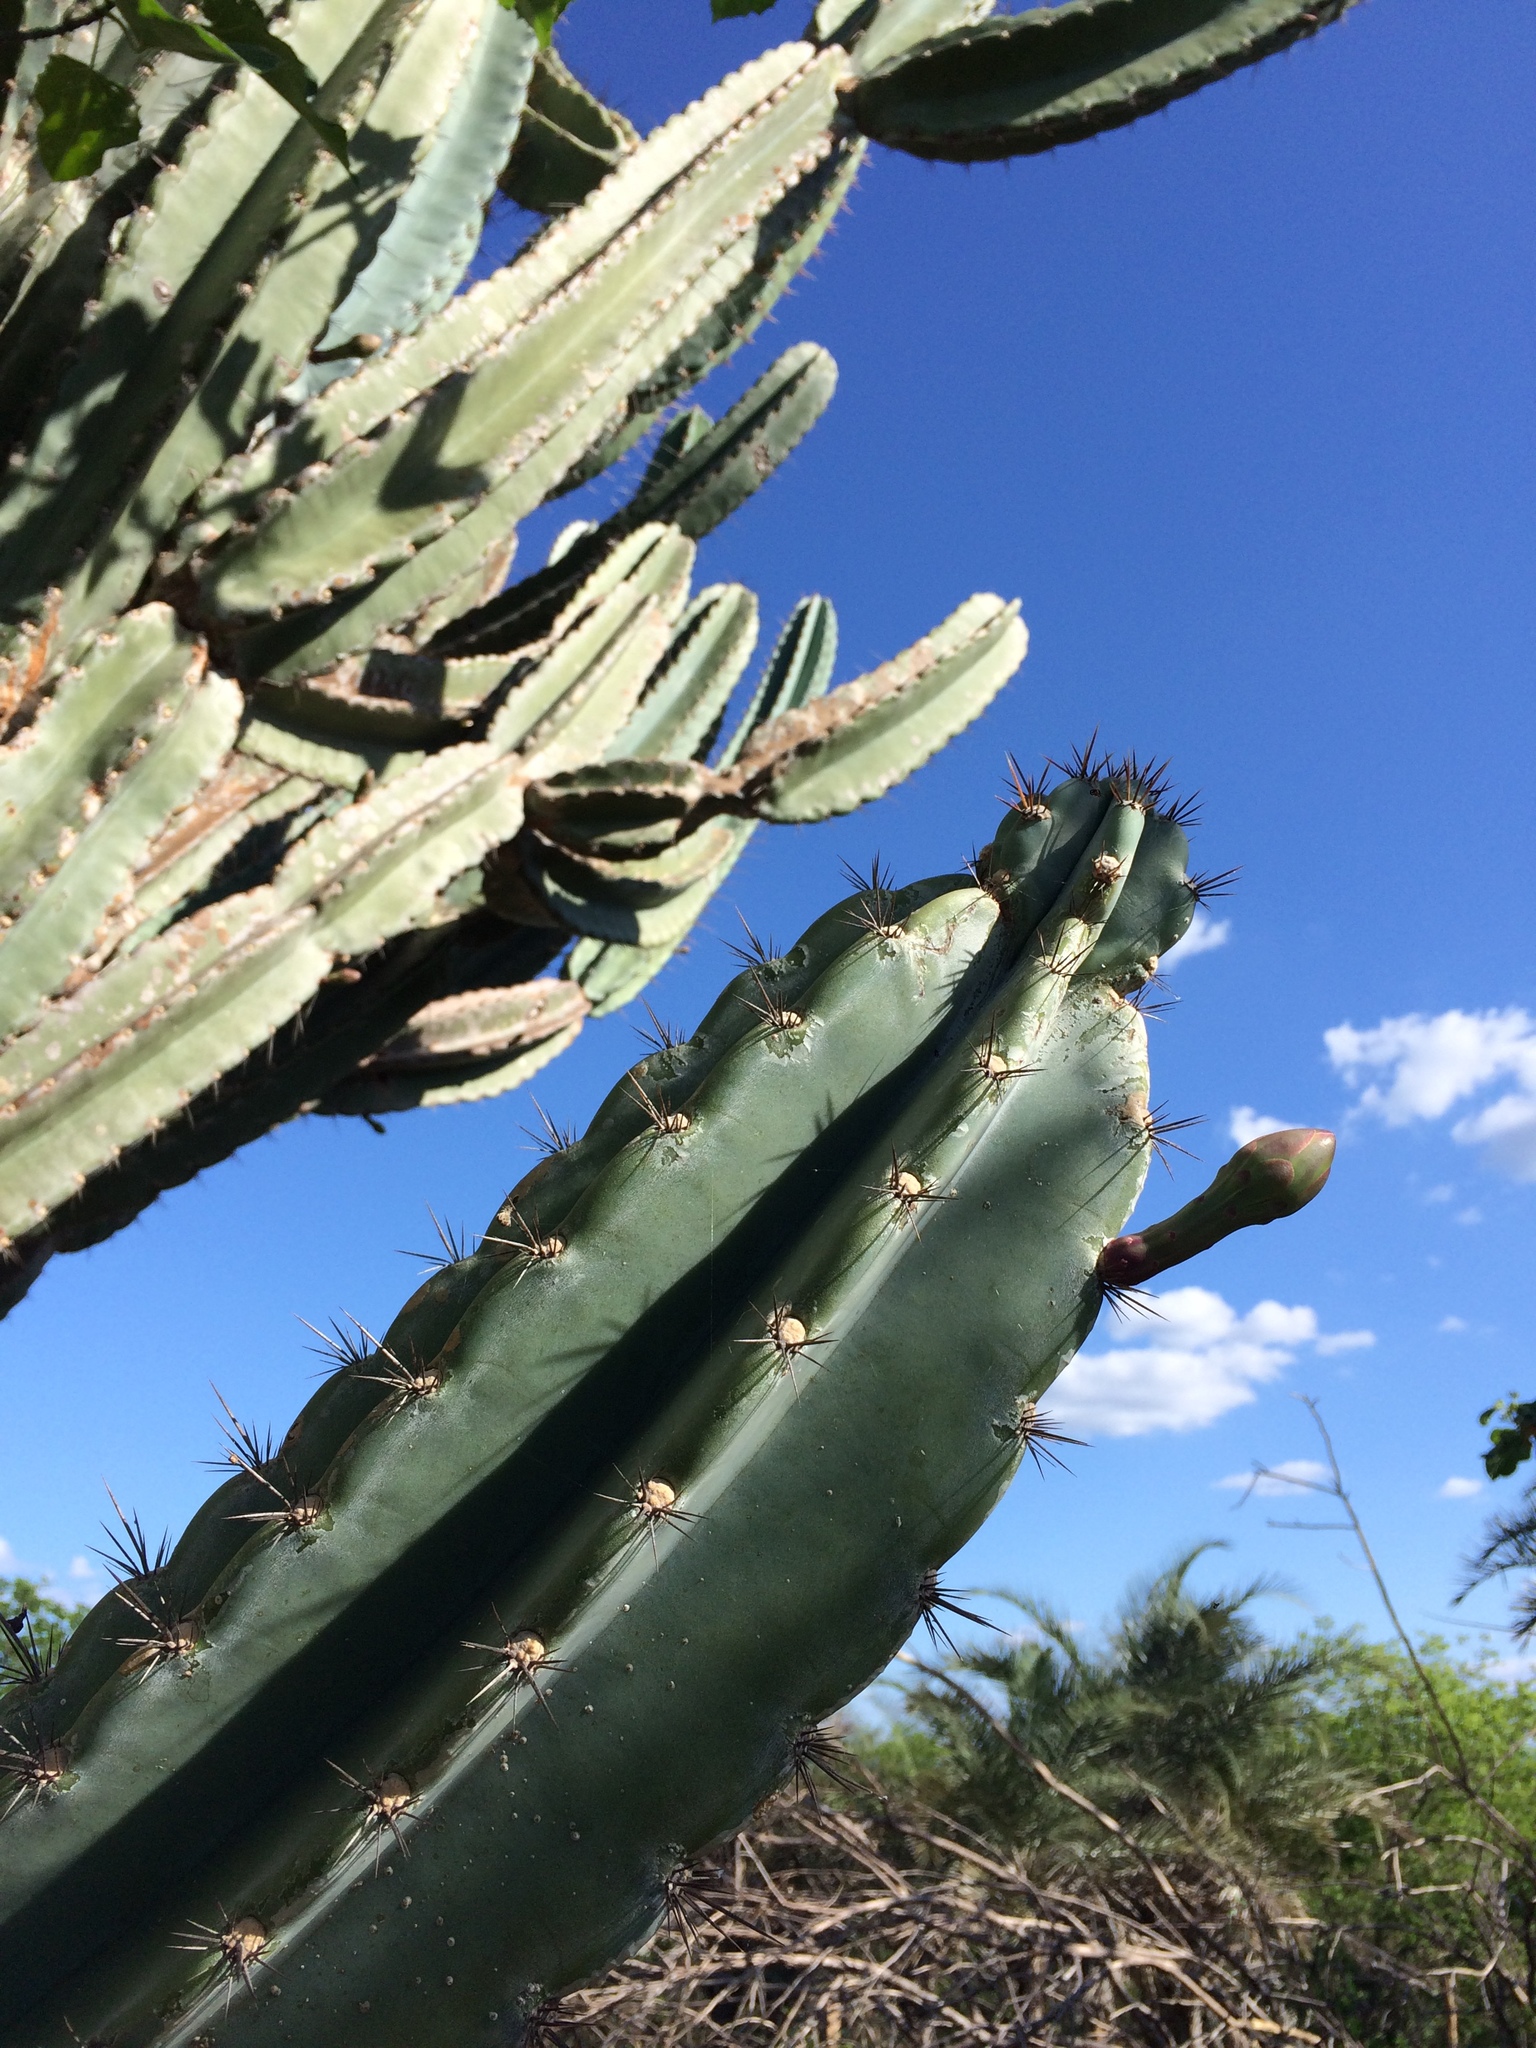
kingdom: Plantae
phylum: Tracheophyta
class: Magnoliopsida
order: Caryophyllales
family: Cactaceae
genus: Cereus
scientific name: Cereus jamacaru
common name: Queen-of-the-night
